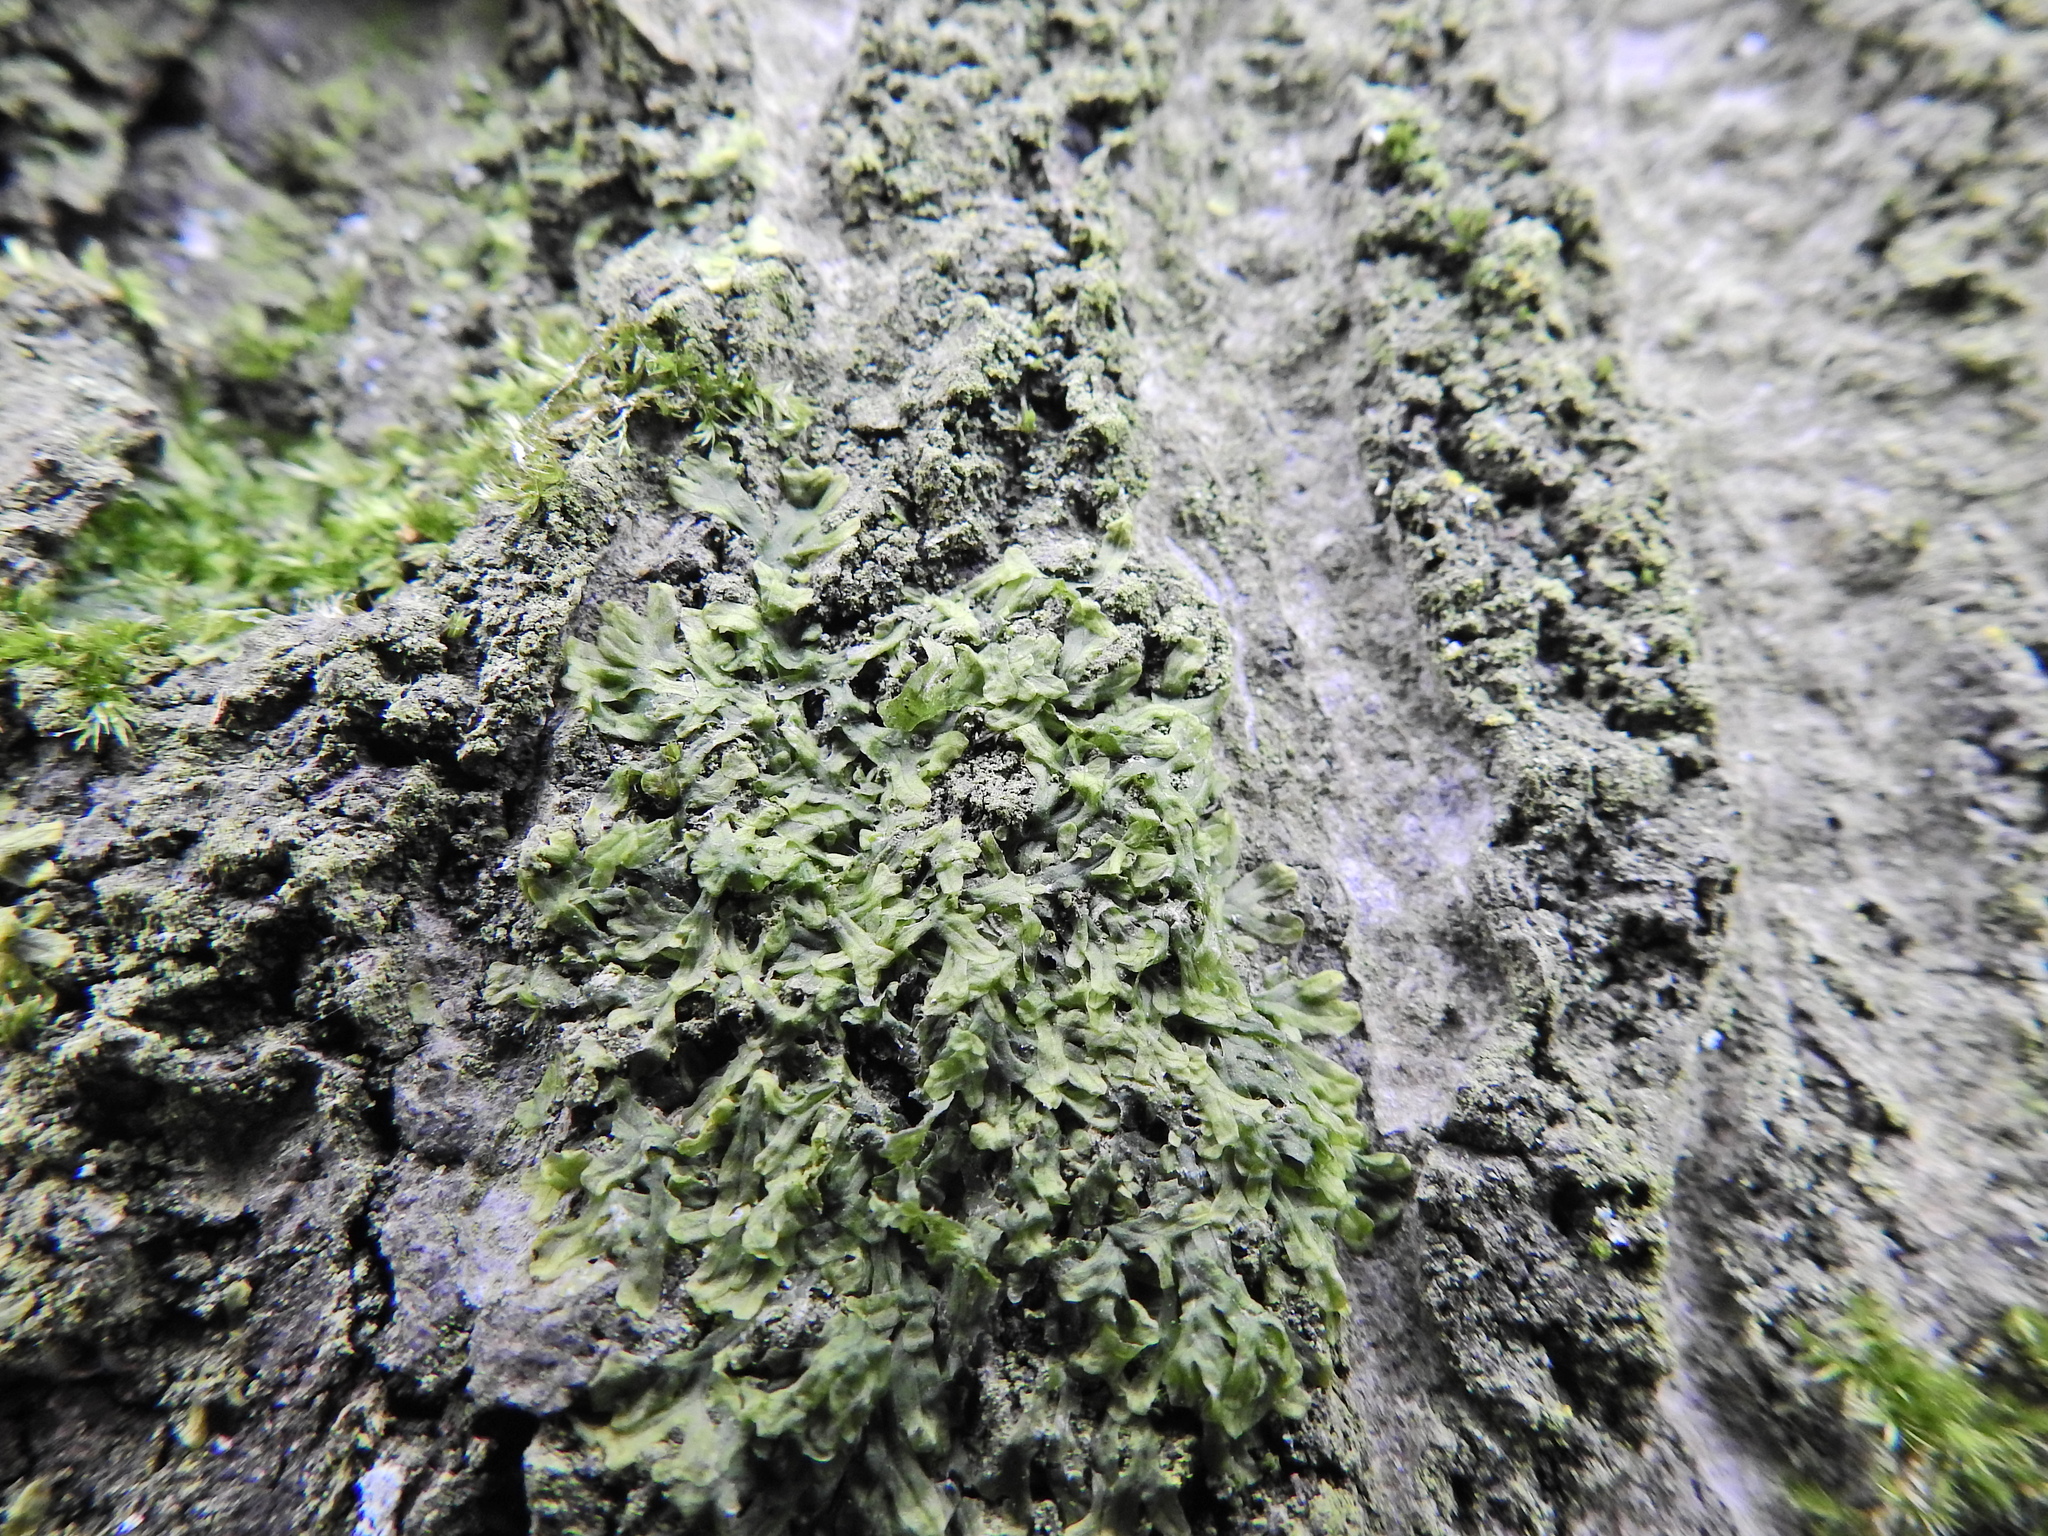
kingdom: Plantae
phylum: Marchantiophyta
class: Jungermanniopsida
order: Metzgeriales
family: Metzgeriaceae
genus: Metzgeria
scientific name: Metzgeria furcata
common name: Forked veilwort
